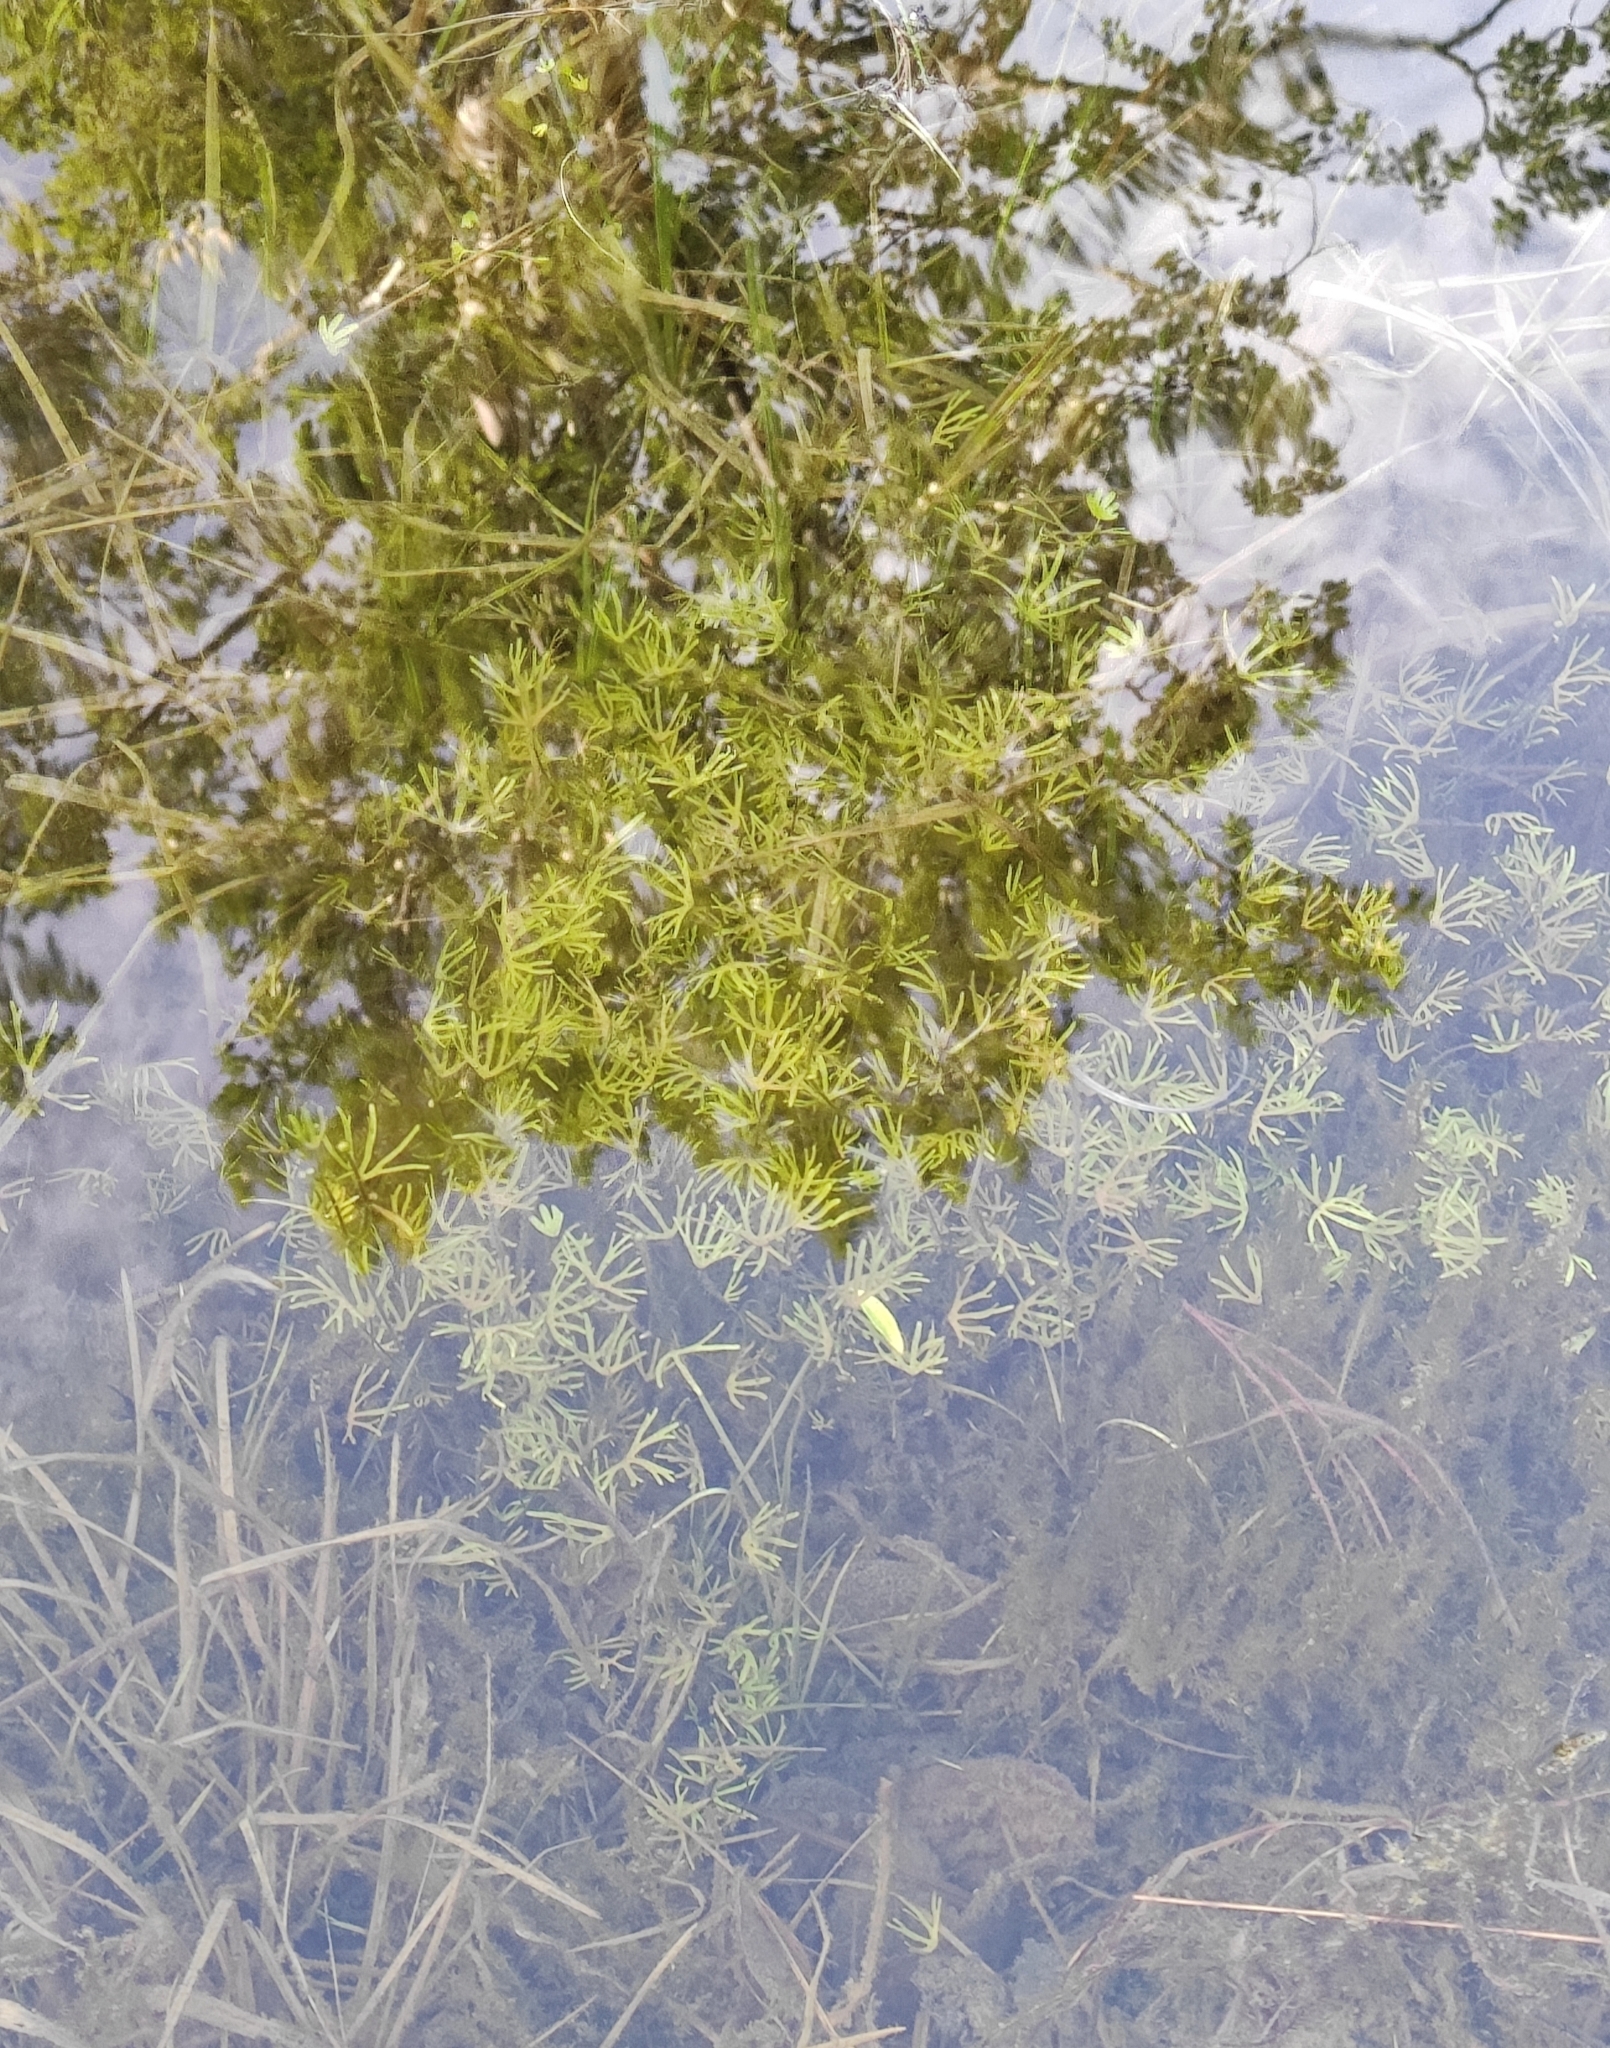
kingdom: Plantae
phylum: Tracheophyta
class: Magnoliopsida
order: Ranunculales
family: Ranunculaceae
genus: Ranunculus
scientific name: Ranunculus gmelinii
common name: Gmelin's buttercup
